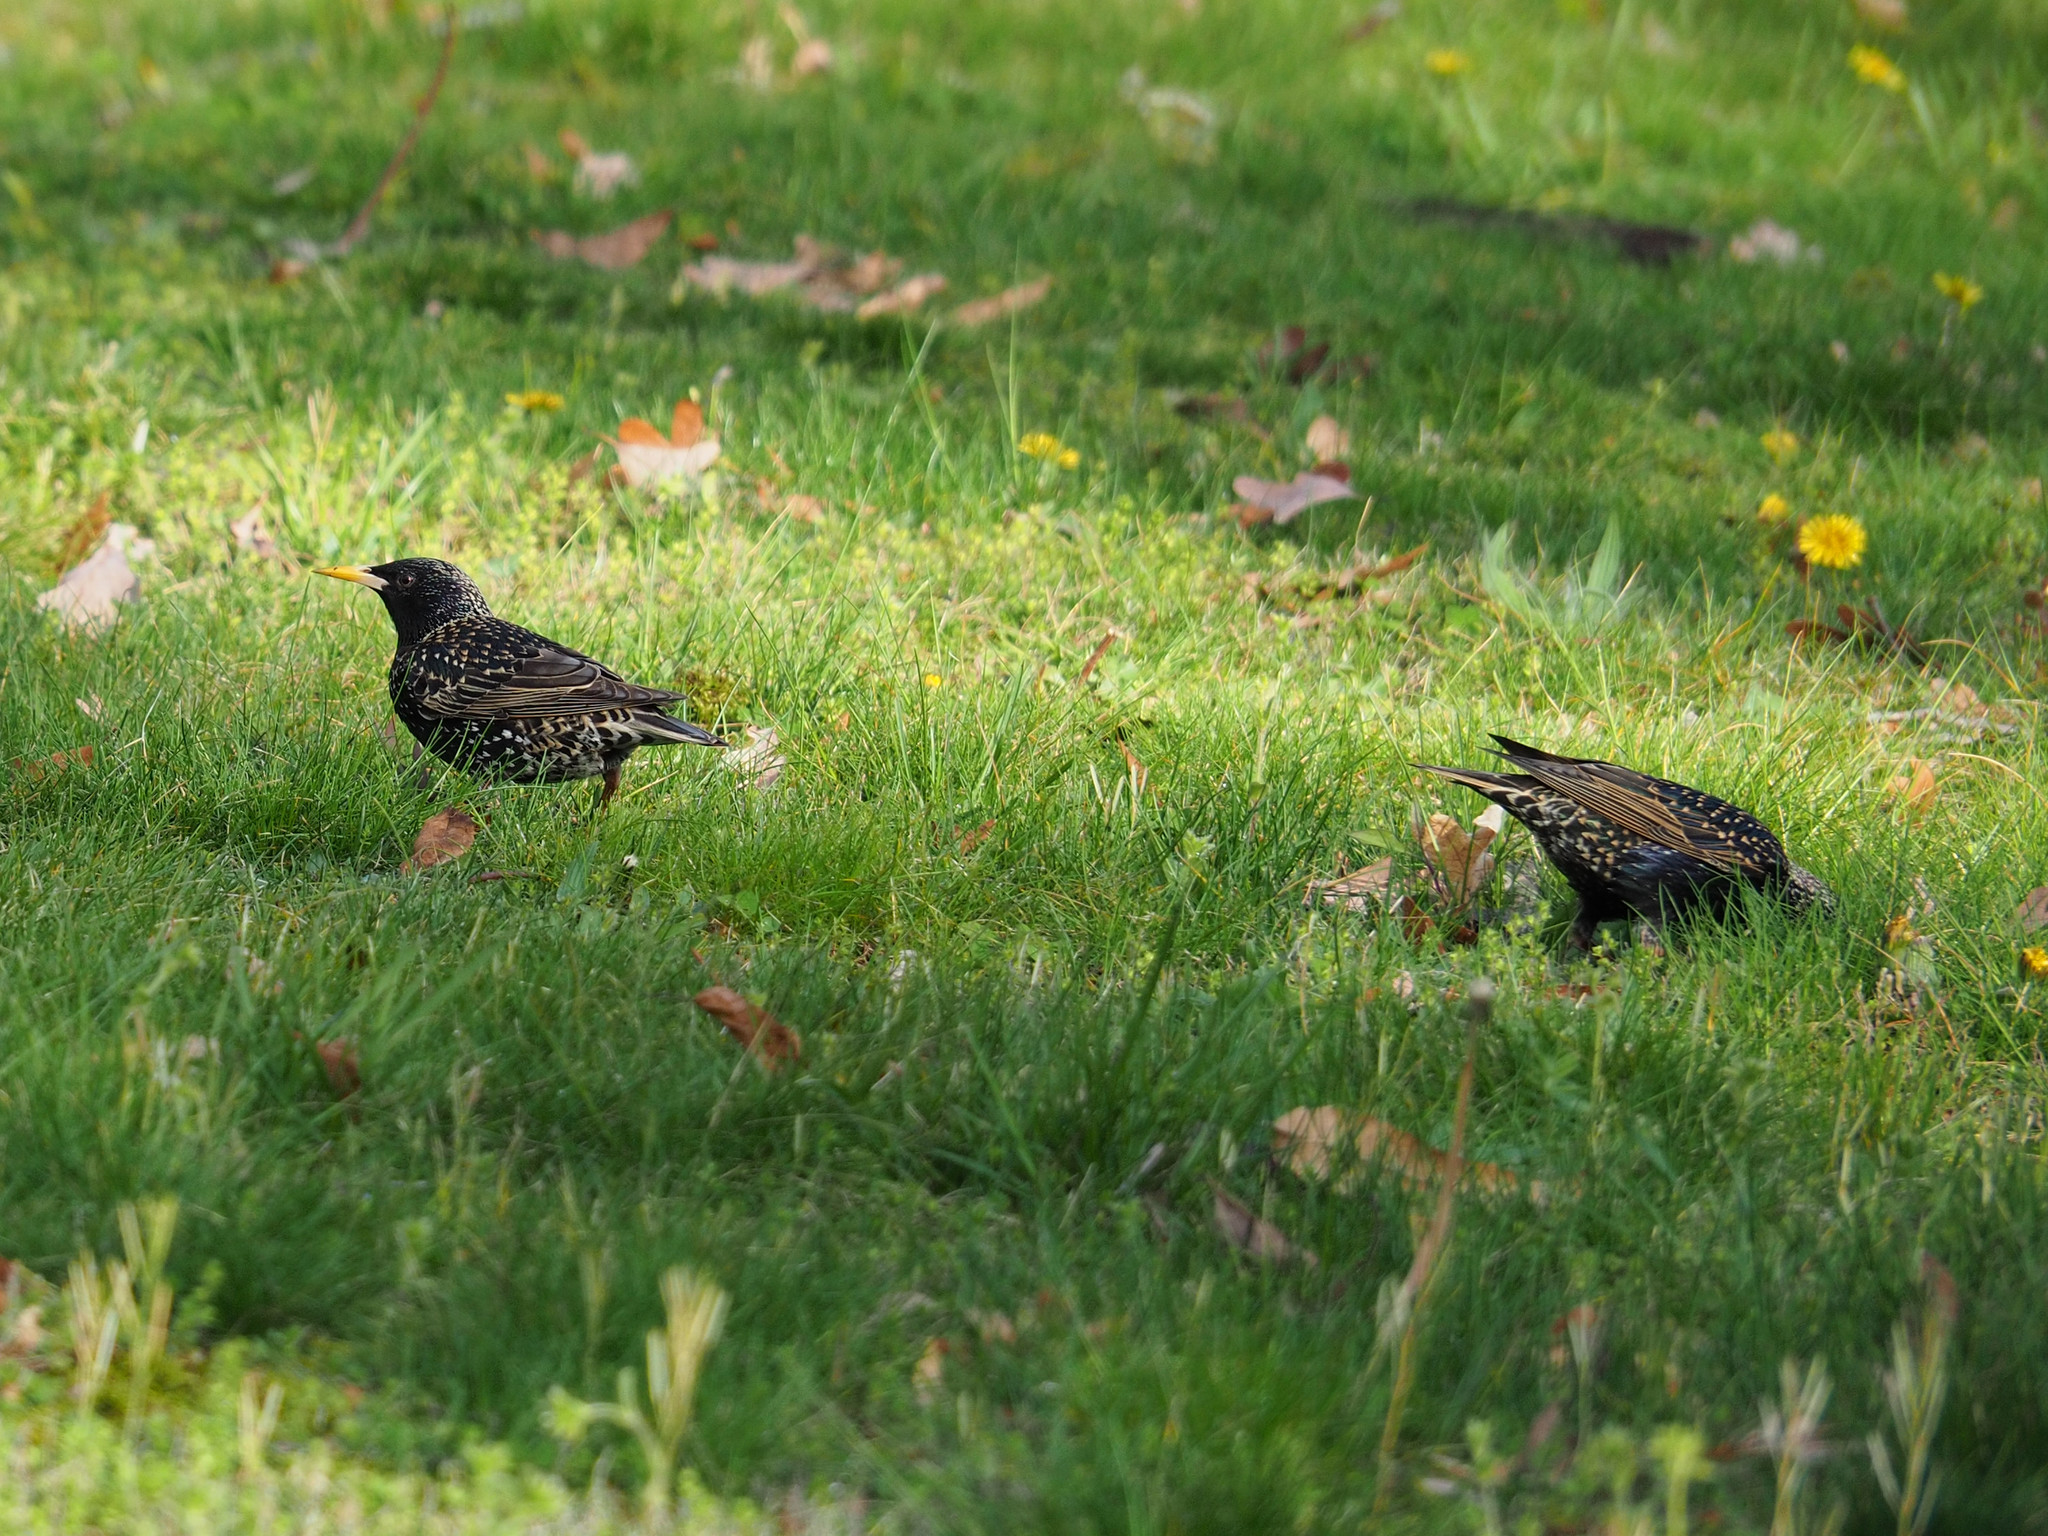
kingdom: Animalia
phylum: Chordata
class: Aves
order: Passeriformes
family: Sturnidae
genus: Sturnus
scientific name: Sturnus vulgaris
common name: Common starling
